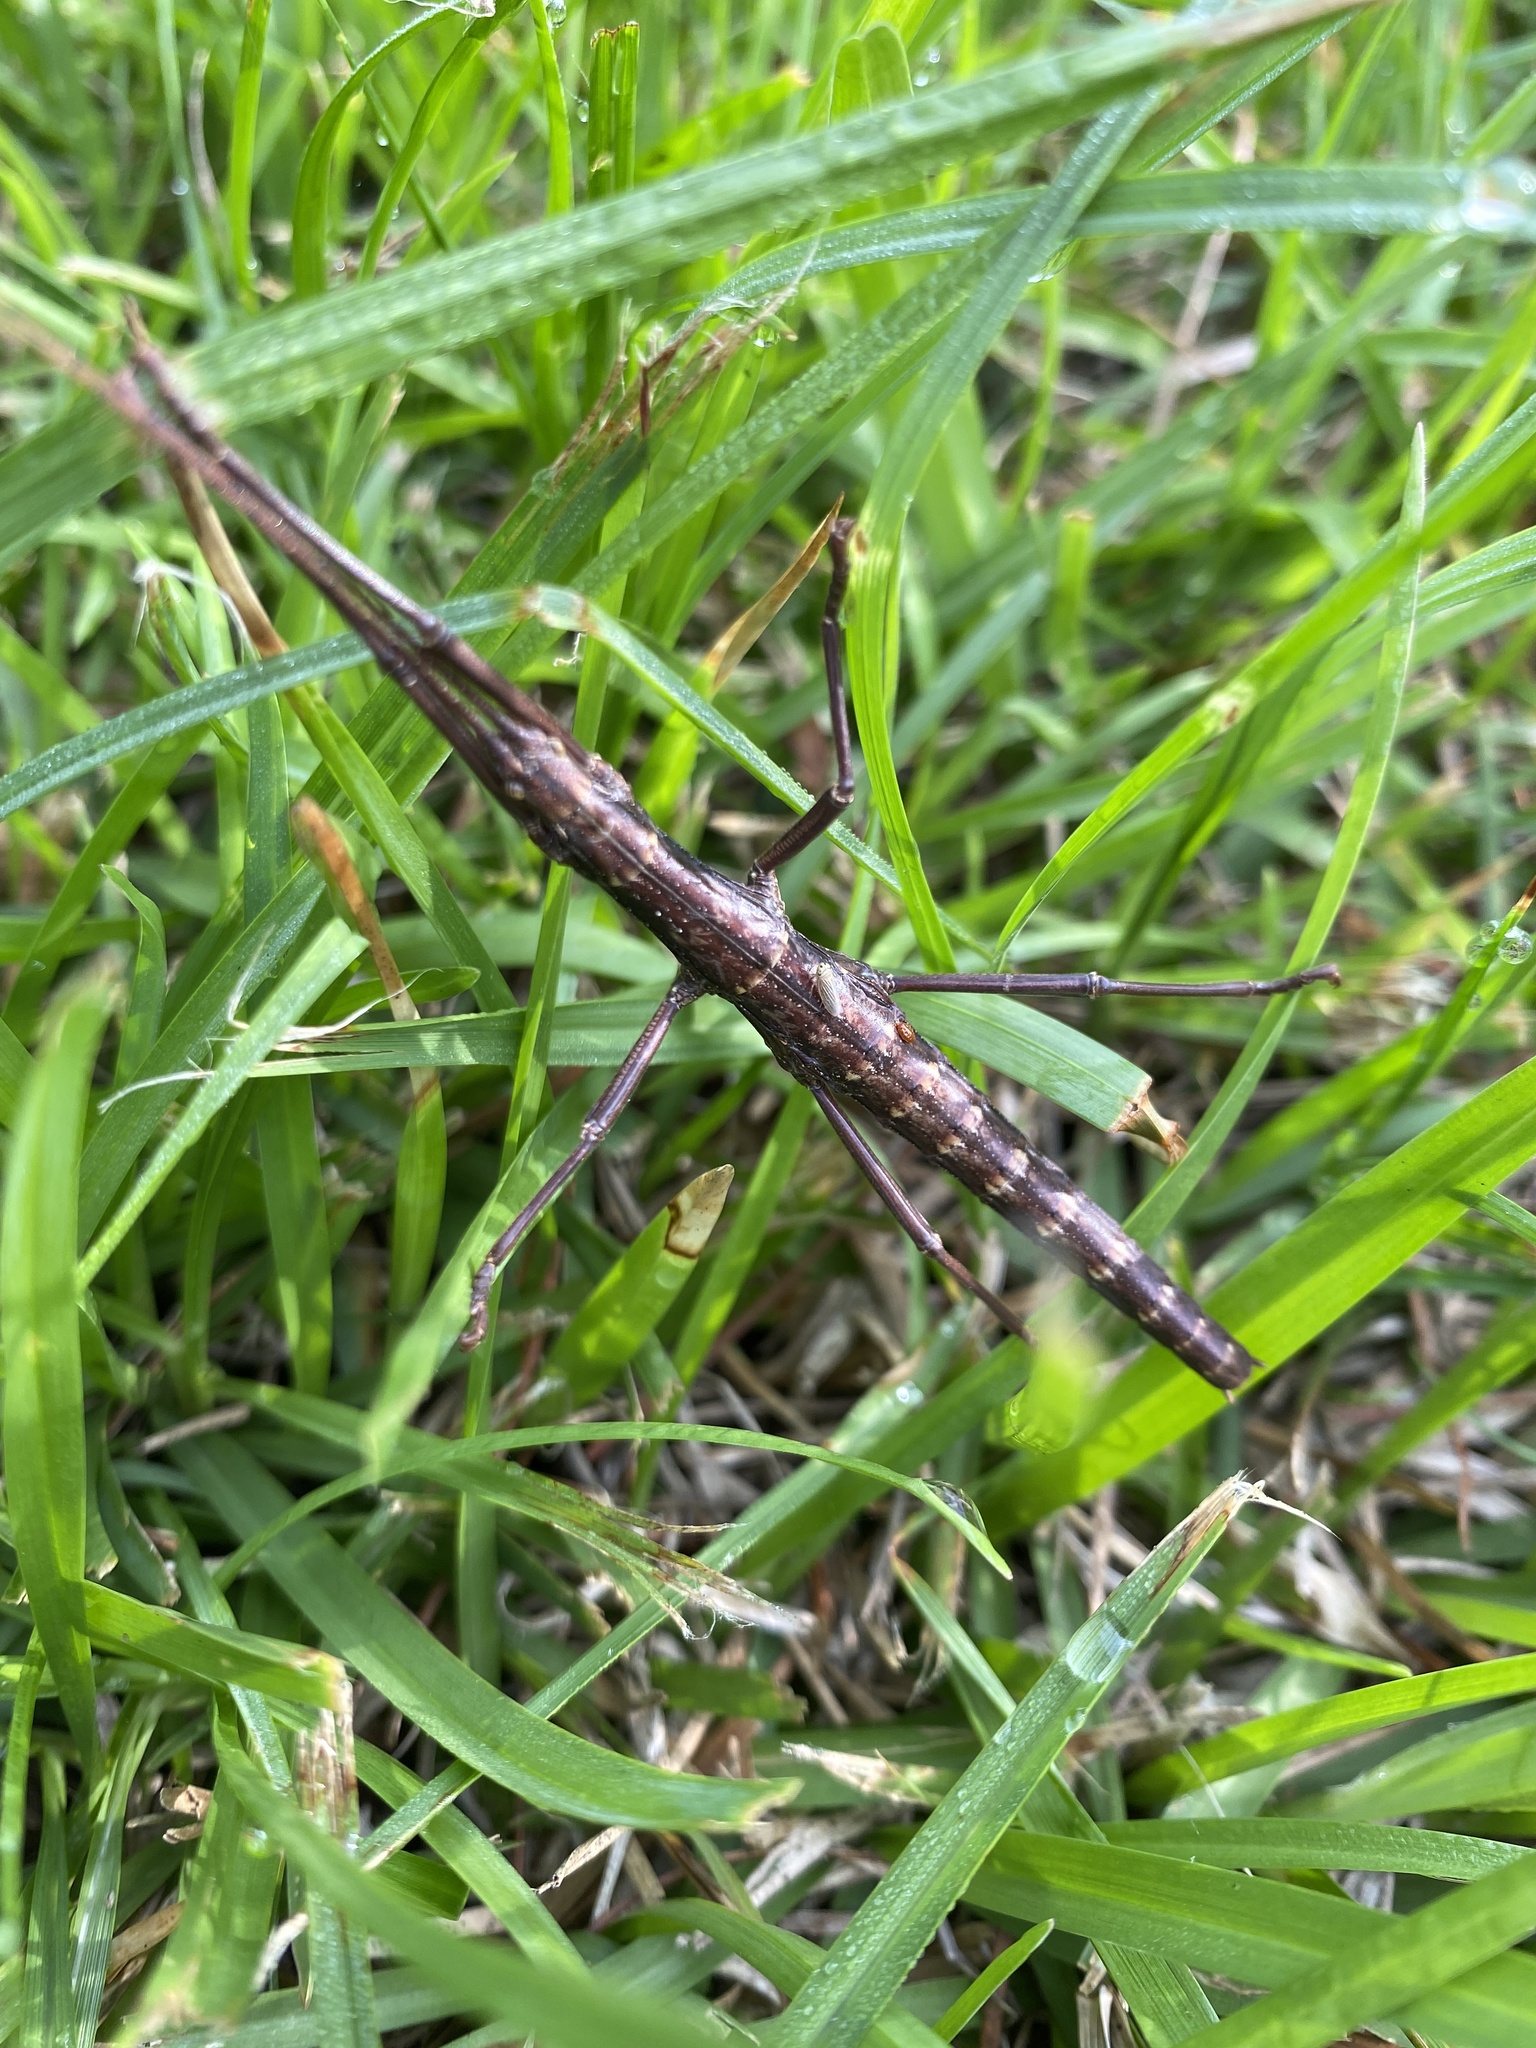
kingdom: Animalia
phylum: Arthropoda
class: Insecta
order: Phasmida
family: Pseudophasmatidae
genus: Anisomorpha
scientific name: Anisomorpha buprestoides
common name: Florida stick insect
